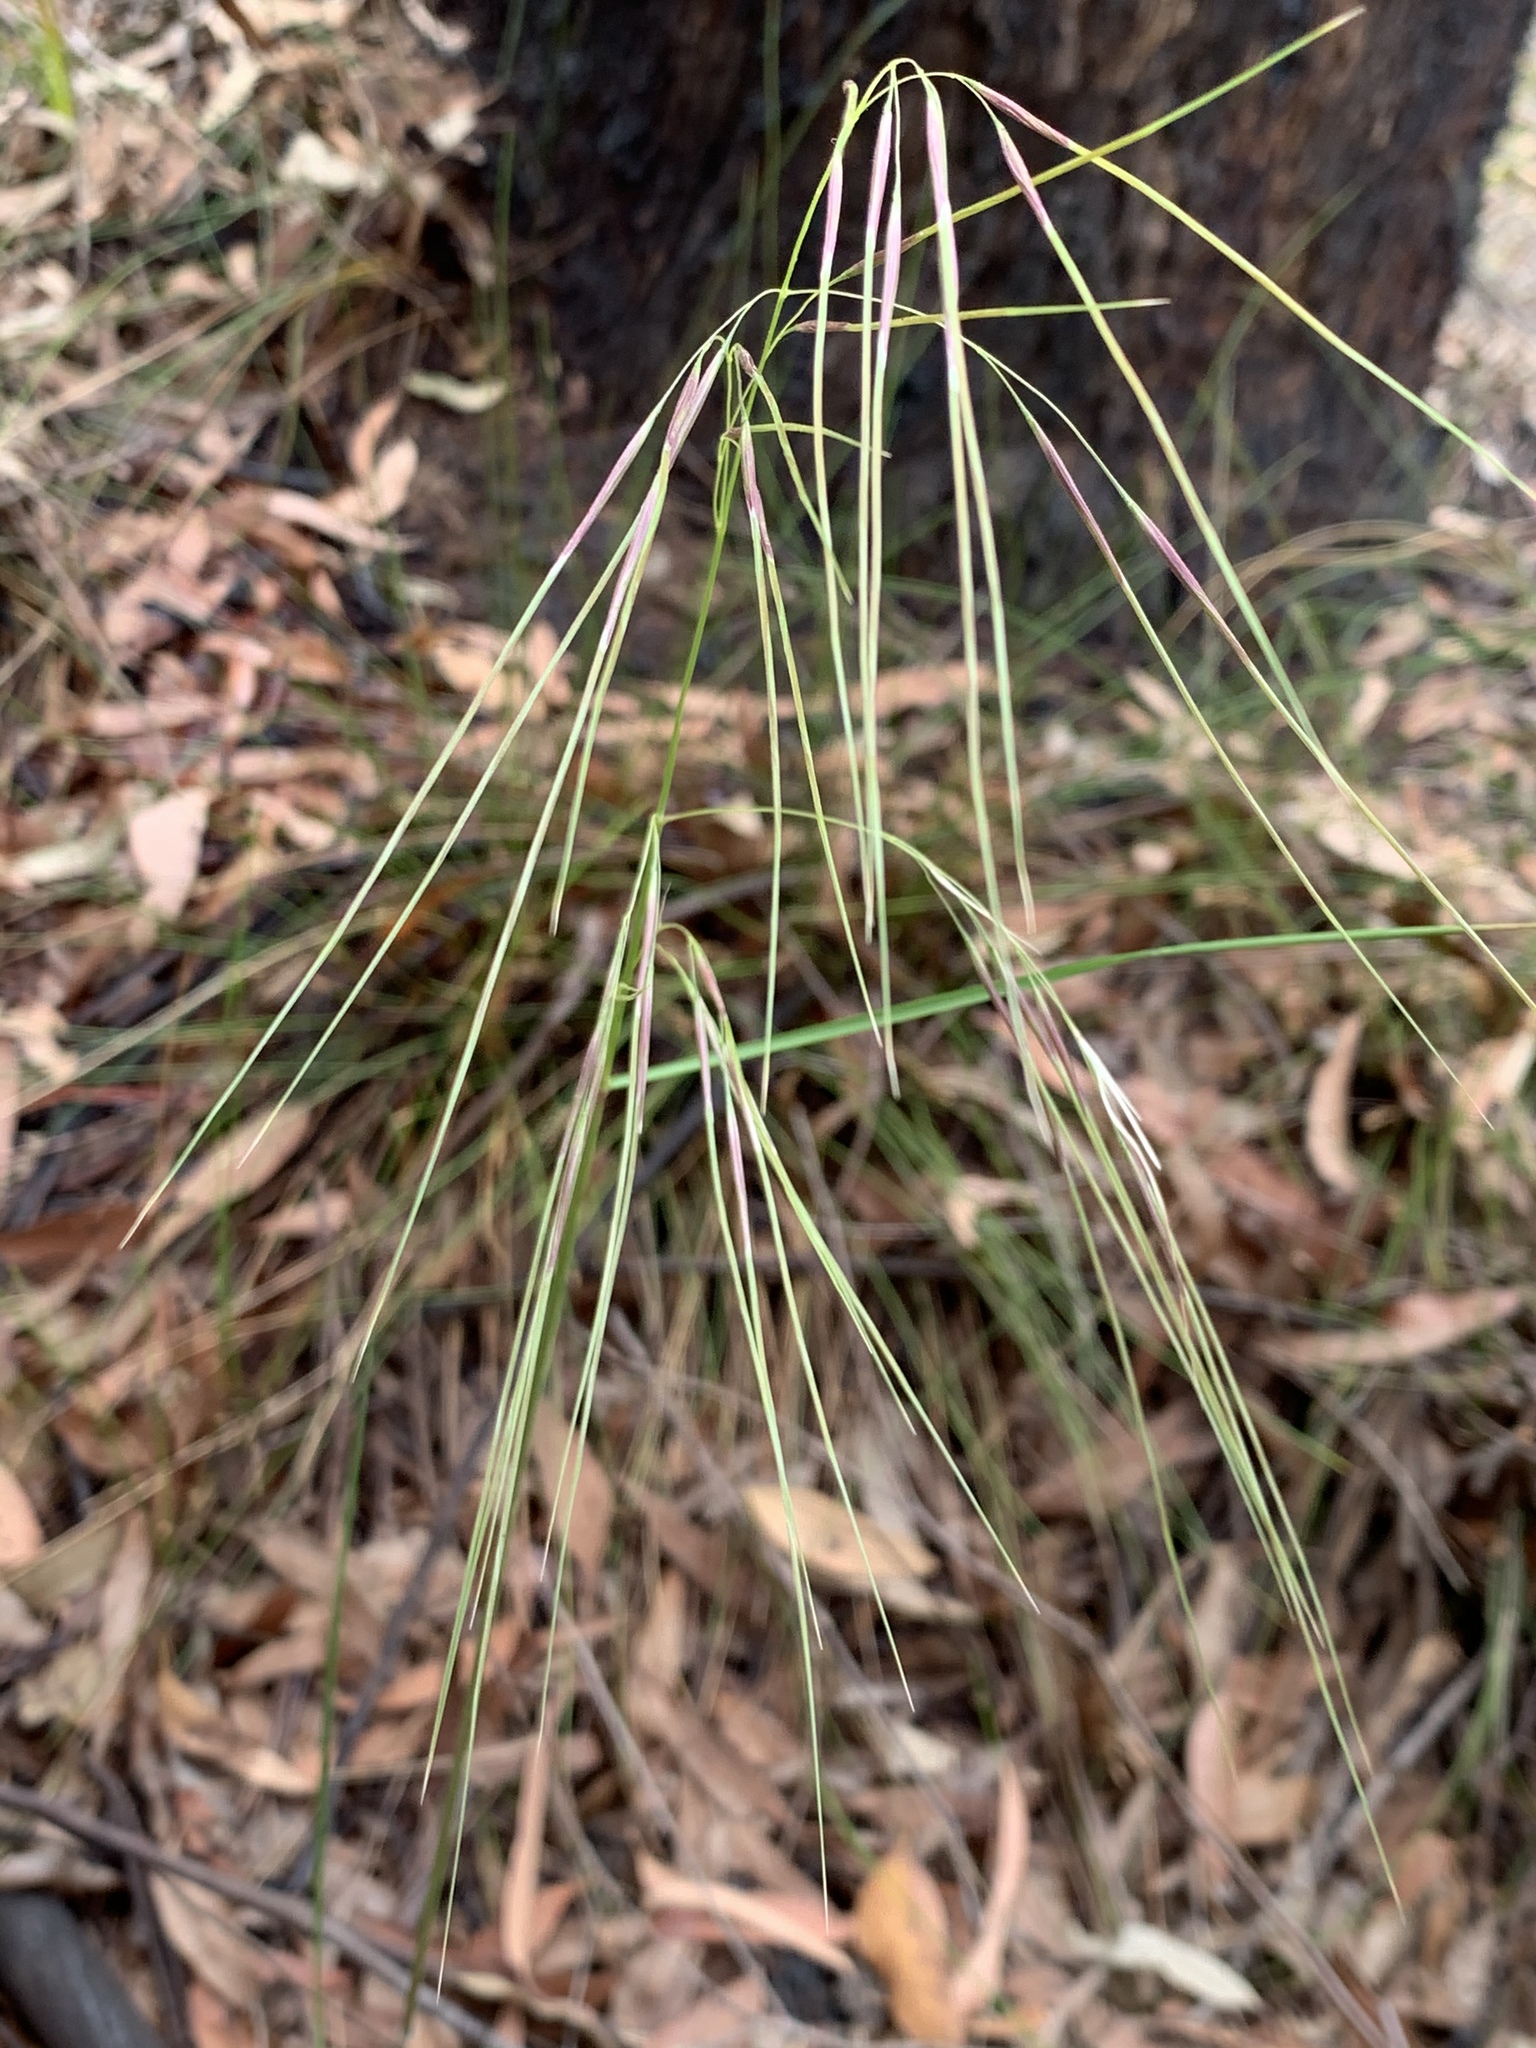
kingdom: Plantae
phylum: Tracheophyta
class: Liliopsida
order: Poales
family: Poaceae
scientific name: Poaceae
